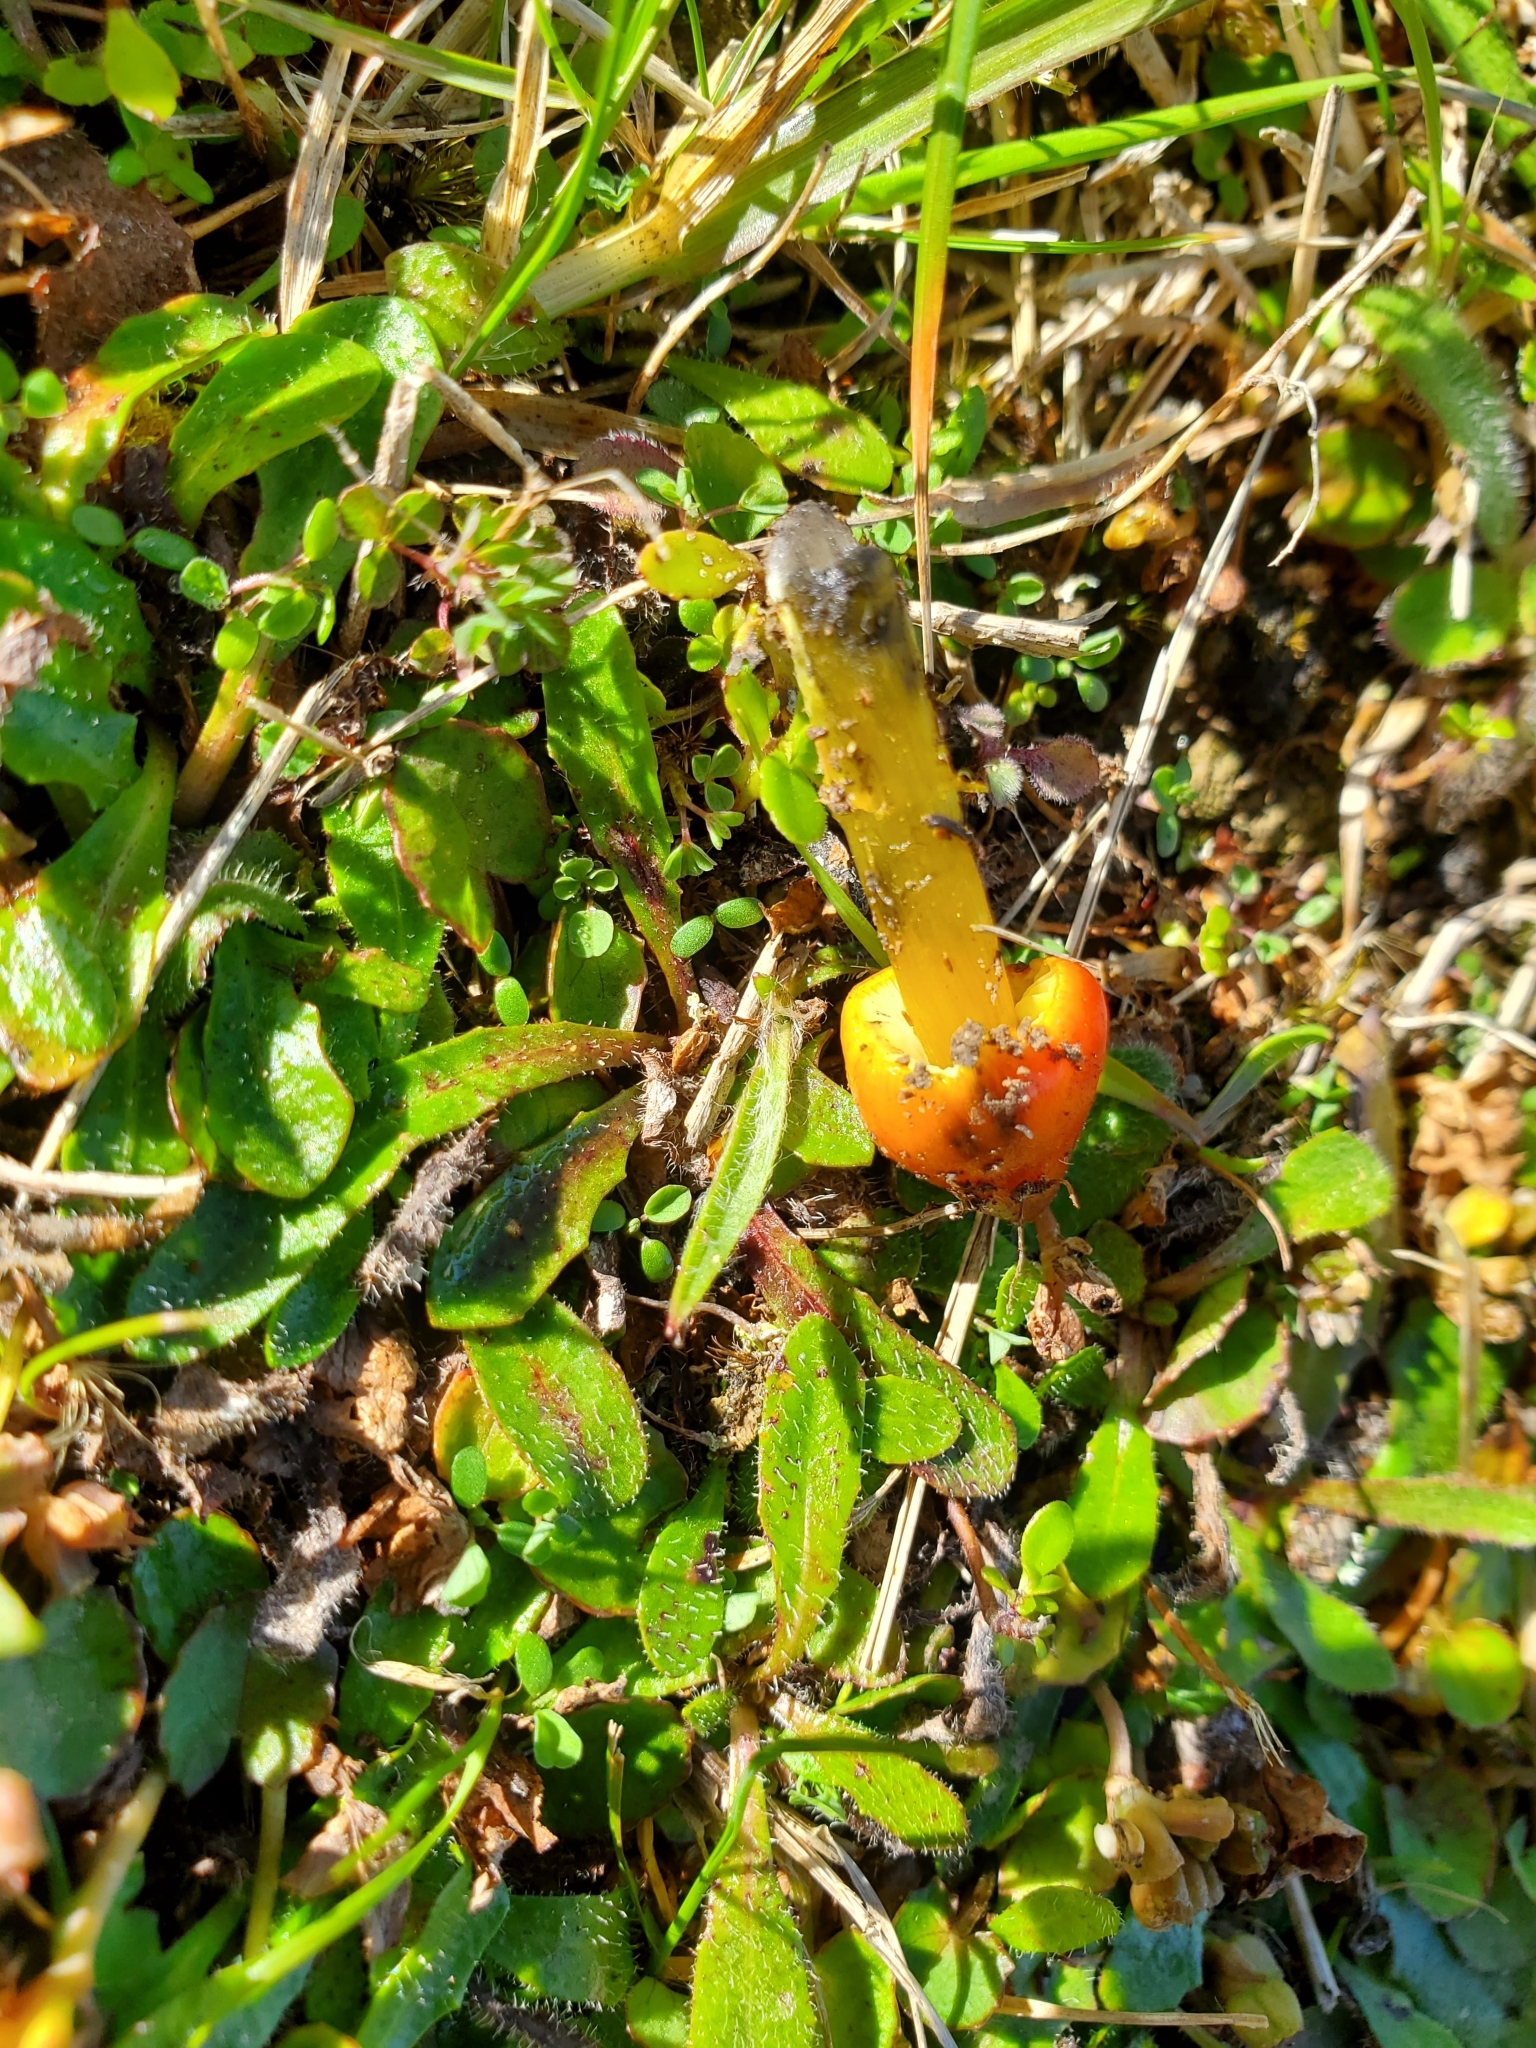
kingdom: Fungi
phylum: Basidiomycota
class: Agaricomycetes
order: Agaricales
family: Hygrophoraceae
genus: Hygrocybe
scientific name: Hygrocybe conica
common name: Blackening wax-cap
